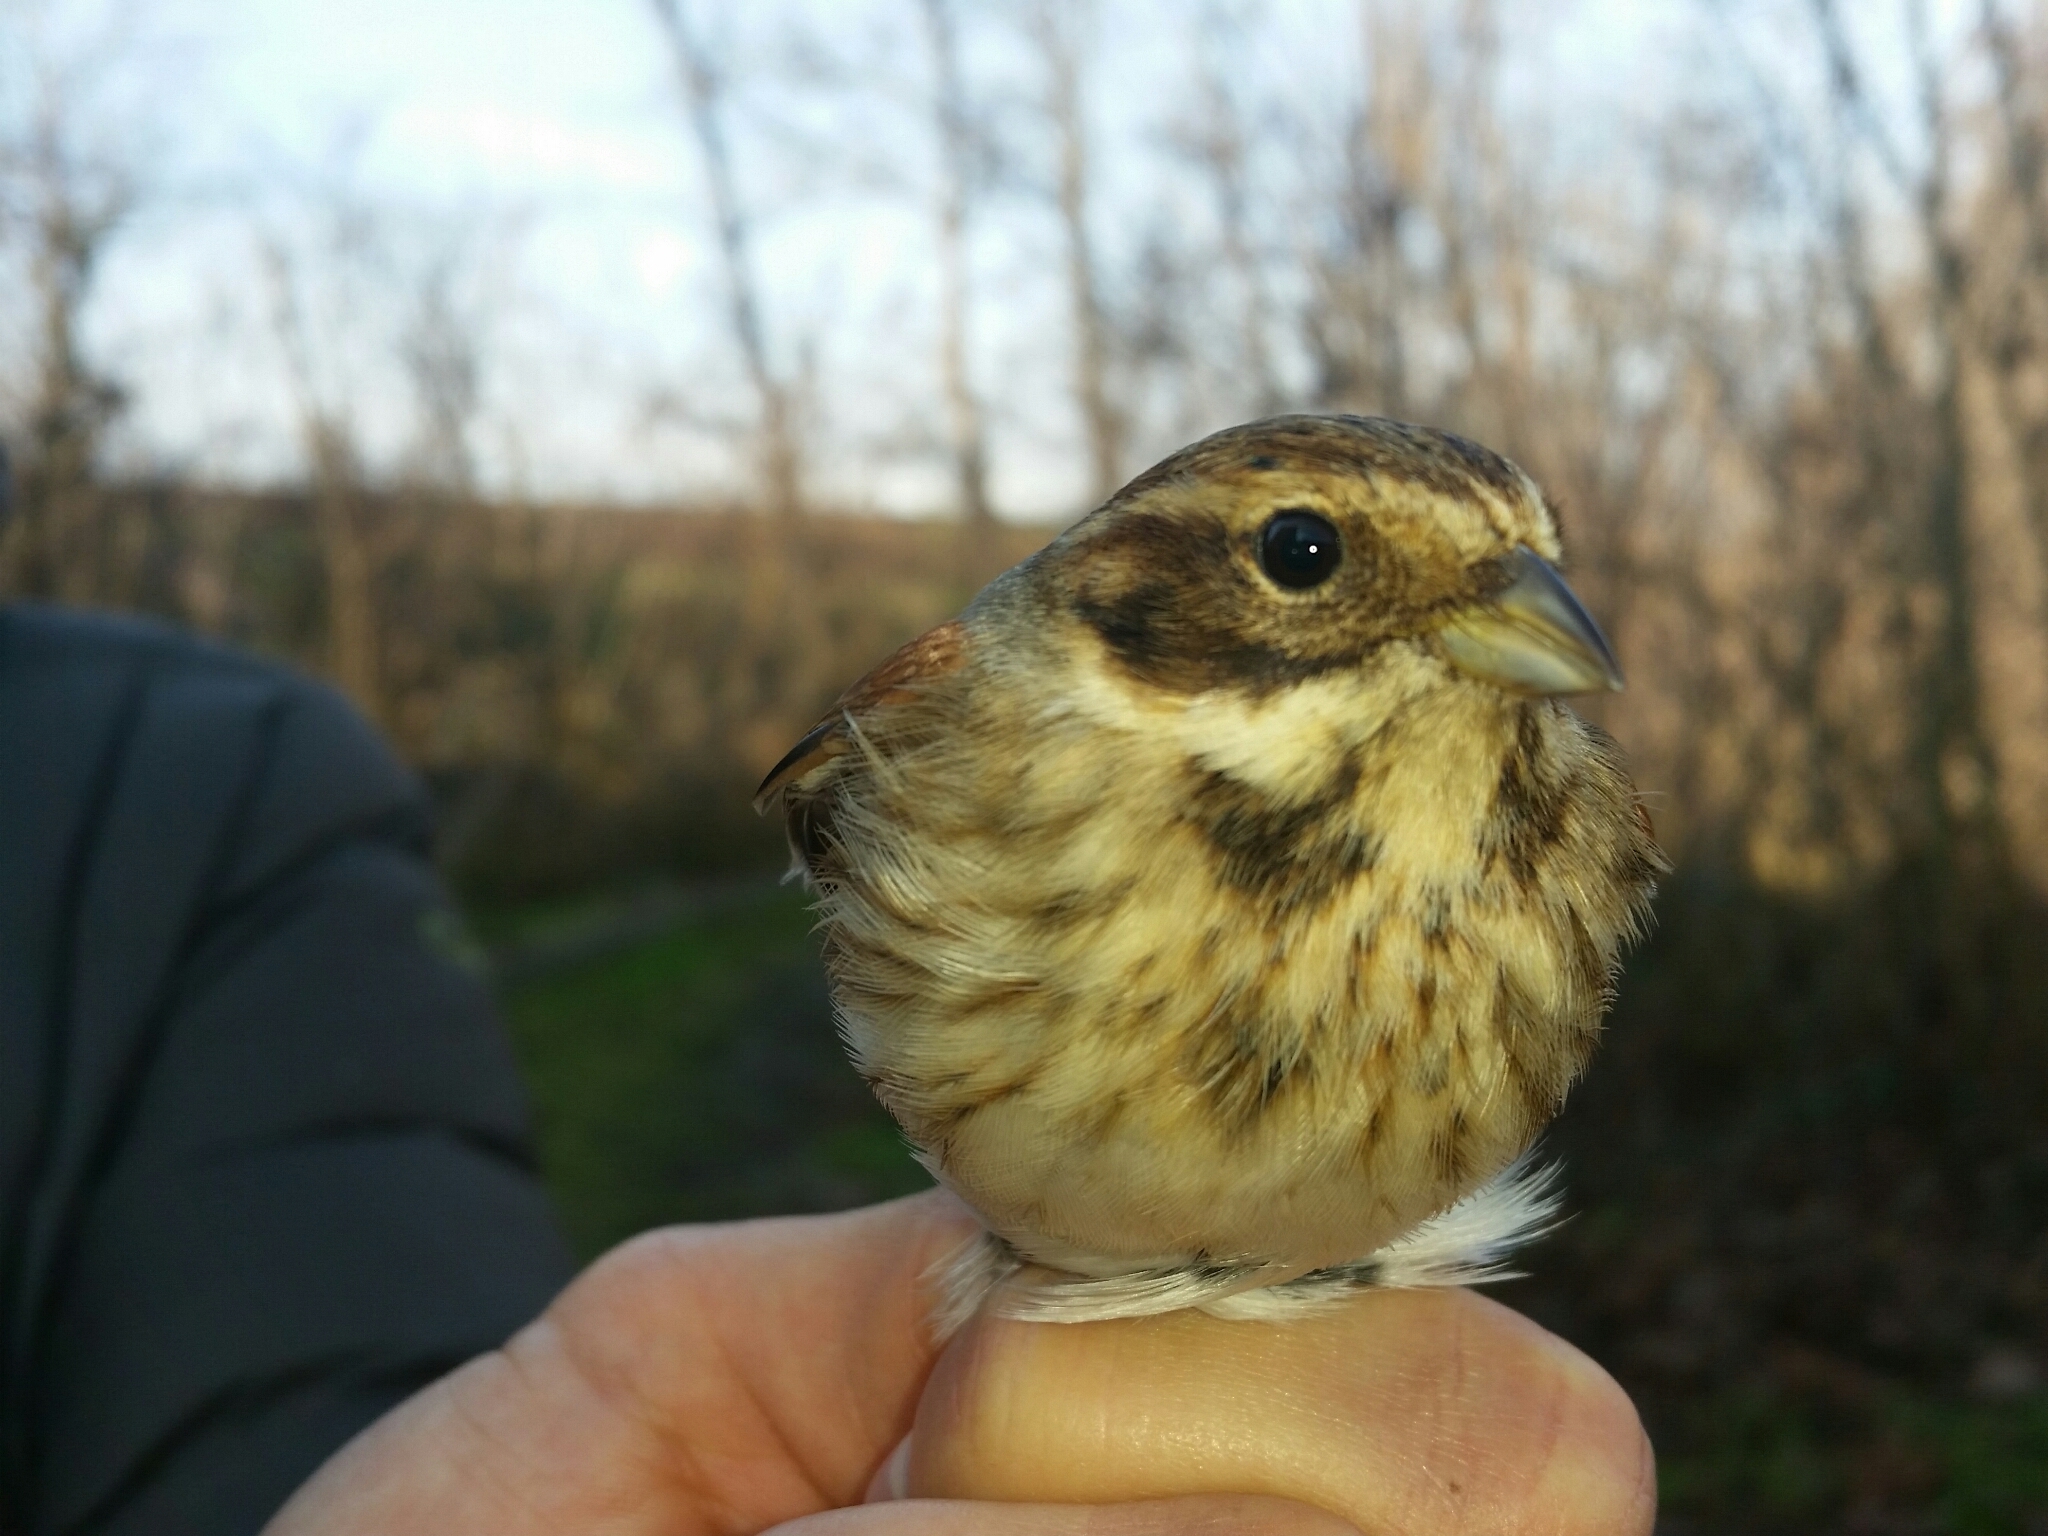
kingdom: Animalia
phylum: Chordata
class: Aves
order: Passeriformes
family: Emberizidae
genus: Emberiza
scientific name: Emberiza schoeniclus
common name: Reed bunting
